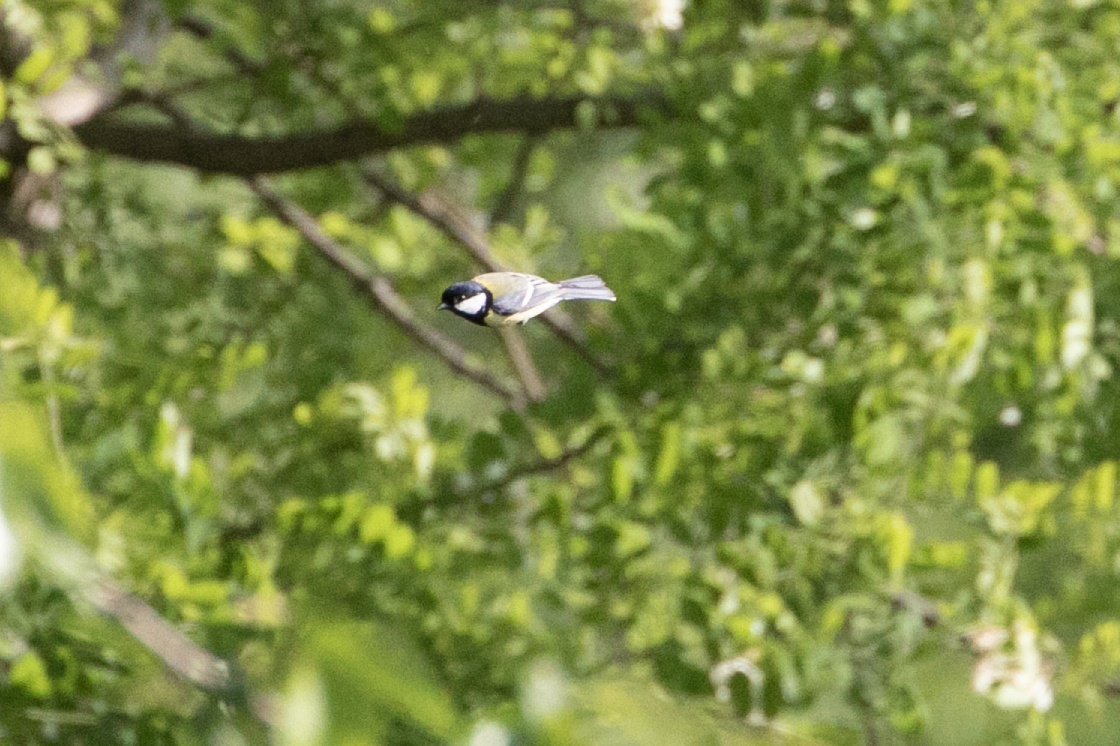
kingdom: Animalia
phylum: Chordata
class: Aves
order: Passeriformes
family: Paridae
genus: Parus
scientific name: Parus major
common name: Great tit
